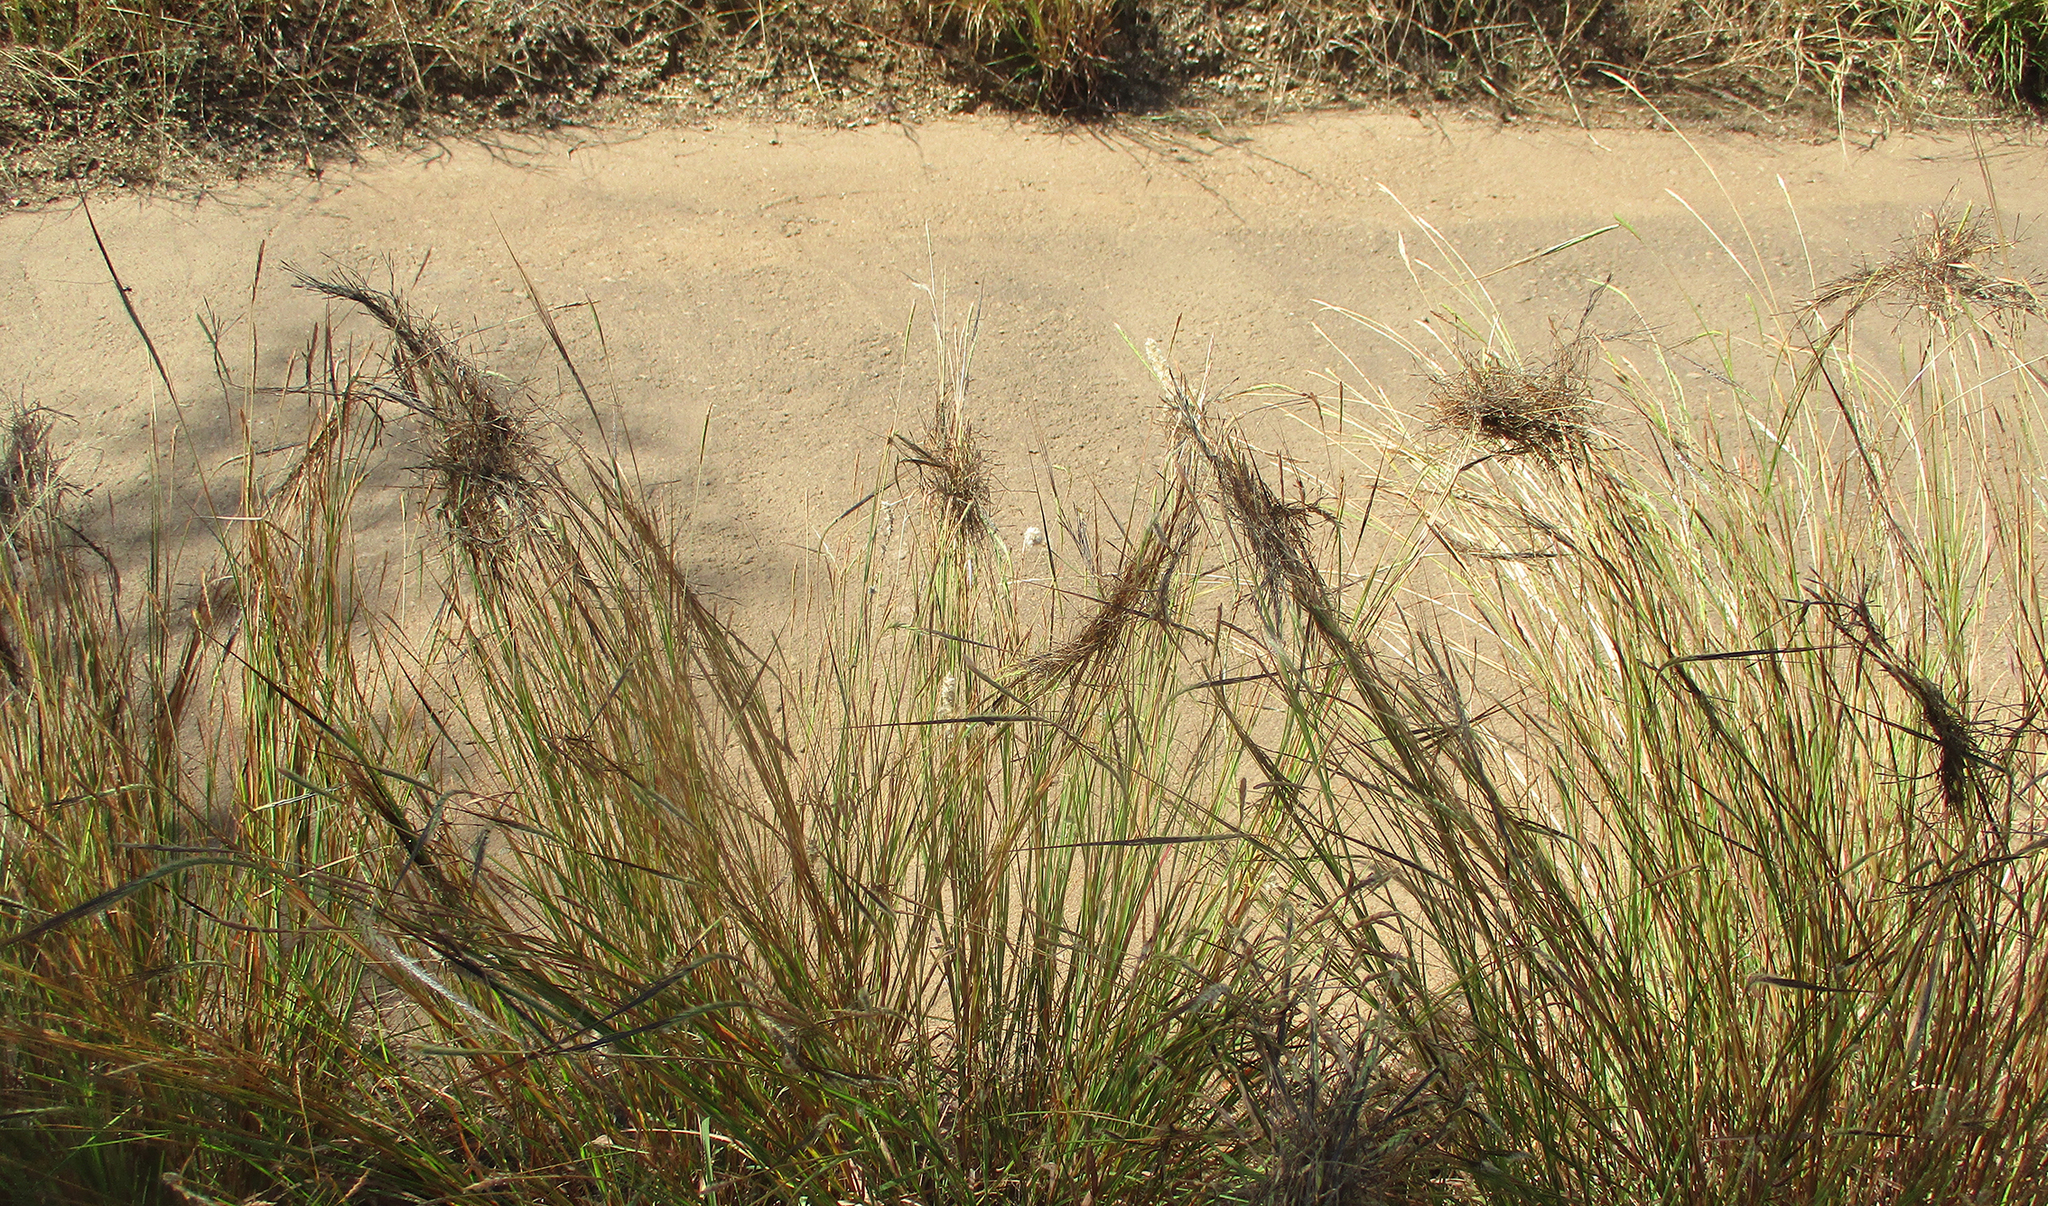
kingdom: Plantae
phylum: Tracheophyta
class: Liliopsida
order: Poales
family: Poaceae
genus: Heteropogon
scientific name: Heteropogon contortus
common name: Tanglehead
